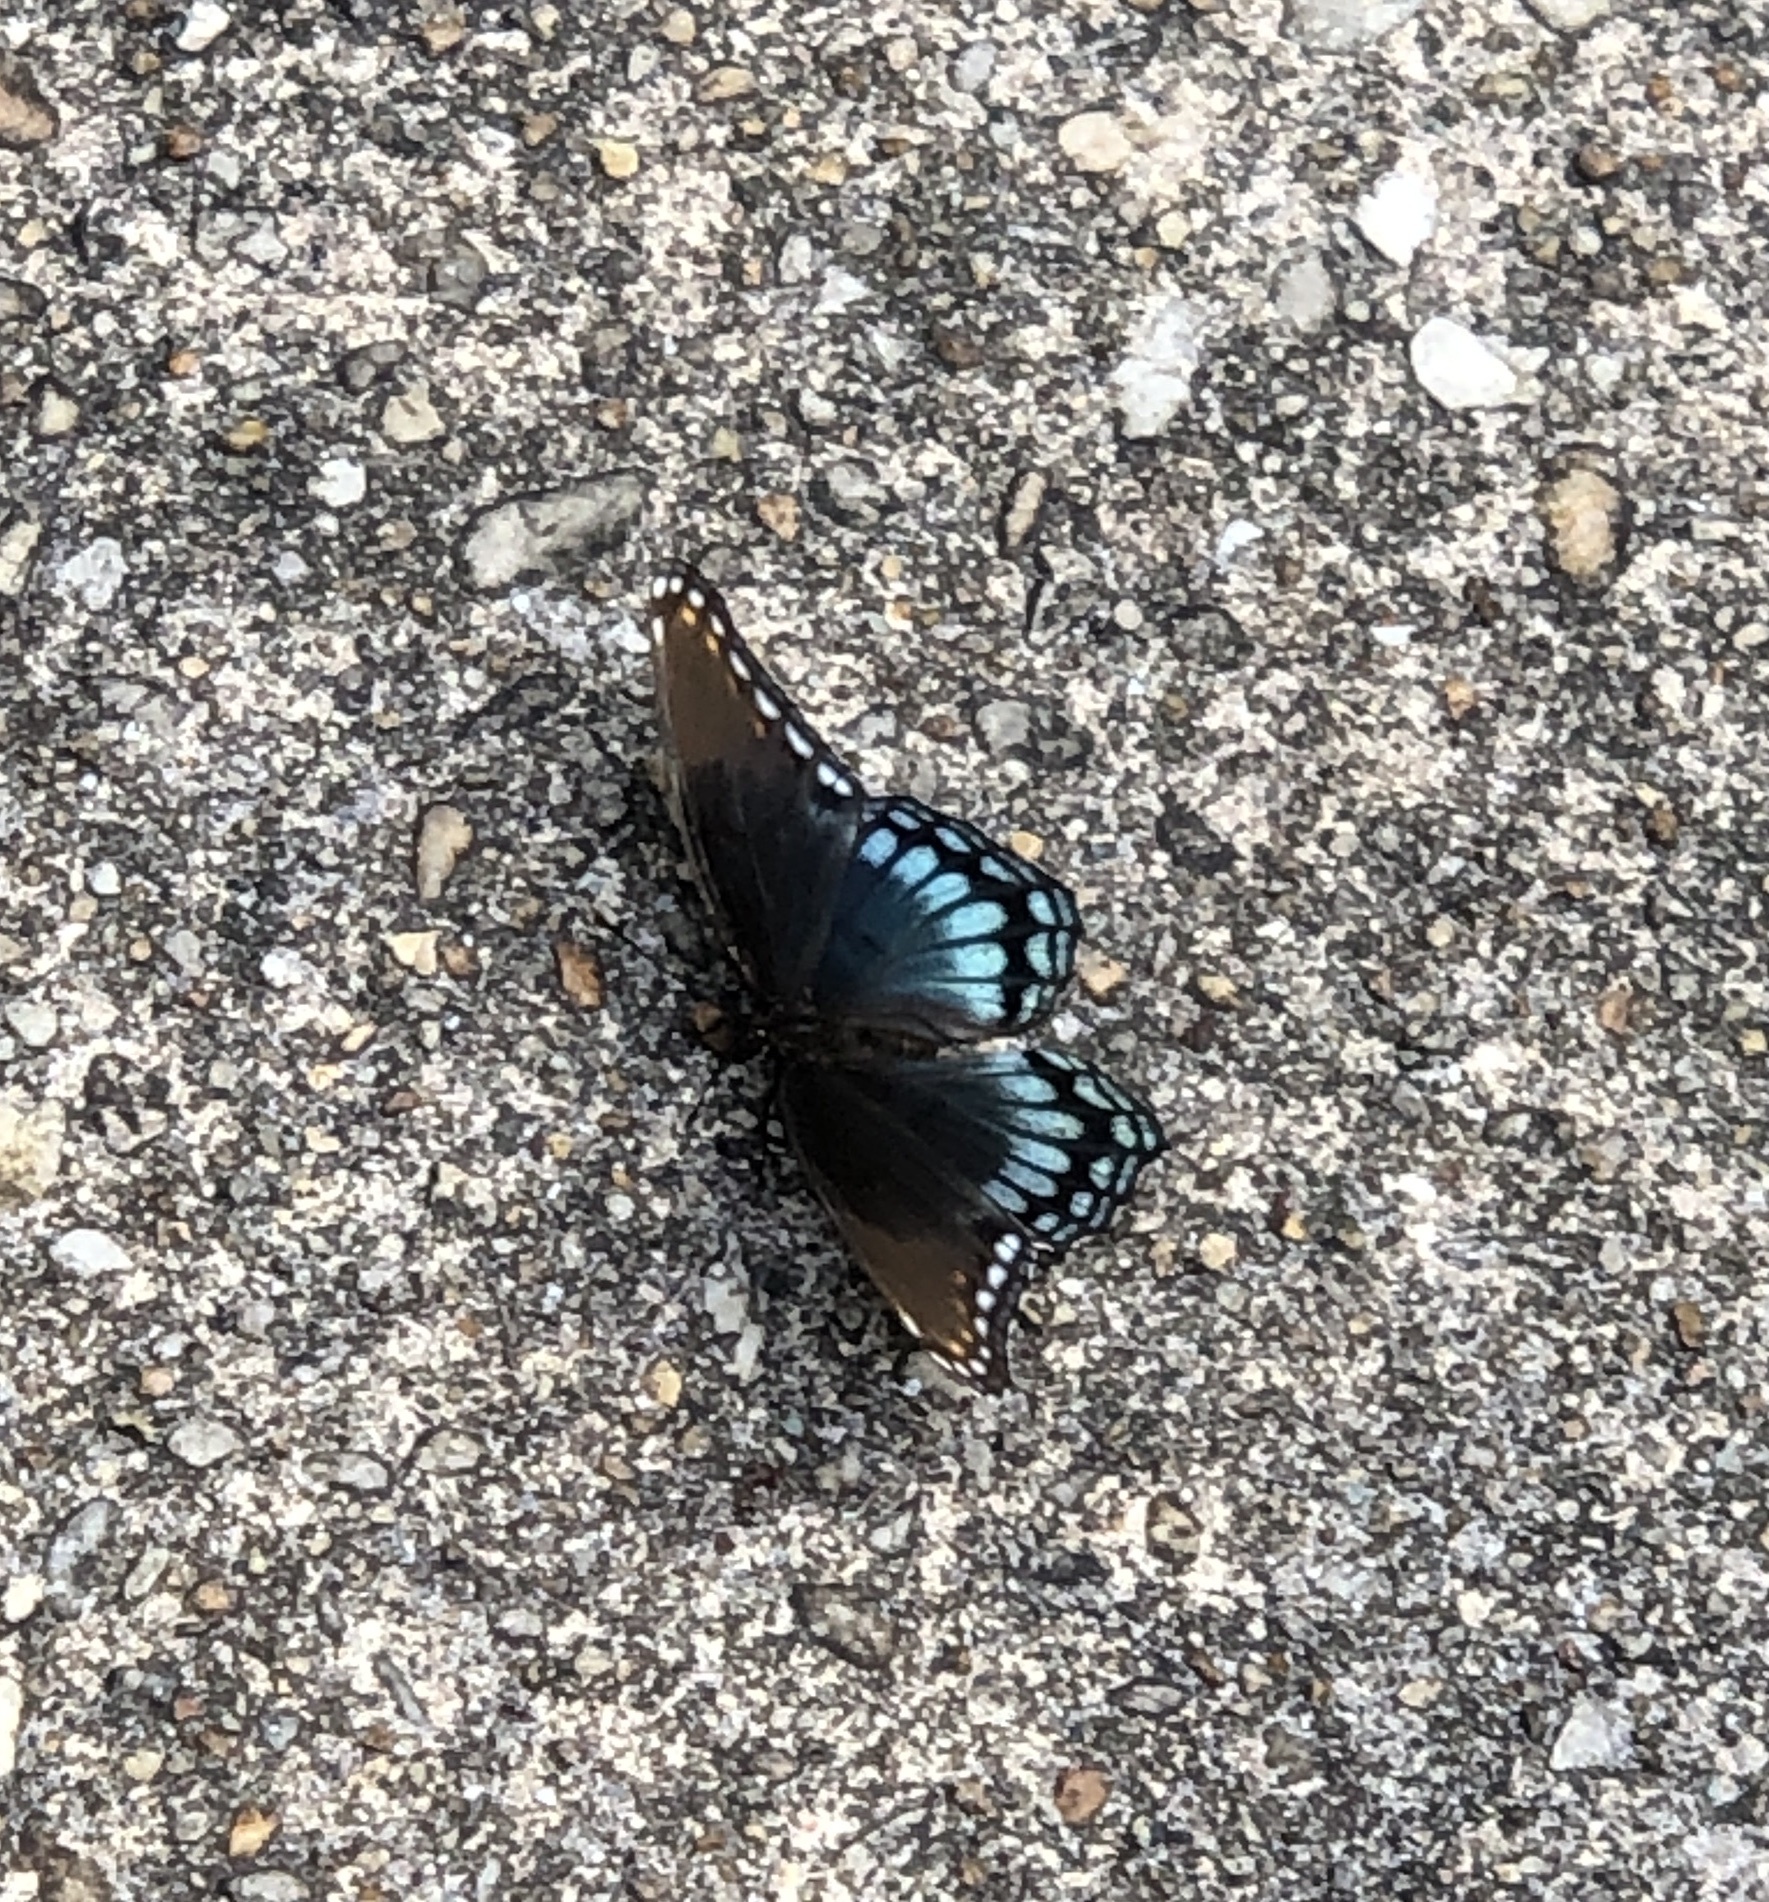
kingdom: Animalia
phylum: Arthropoda
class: Insecta
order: Lepidoptera
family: Nymphalidae
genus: Limenitis
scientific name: Limenitis astyanax
